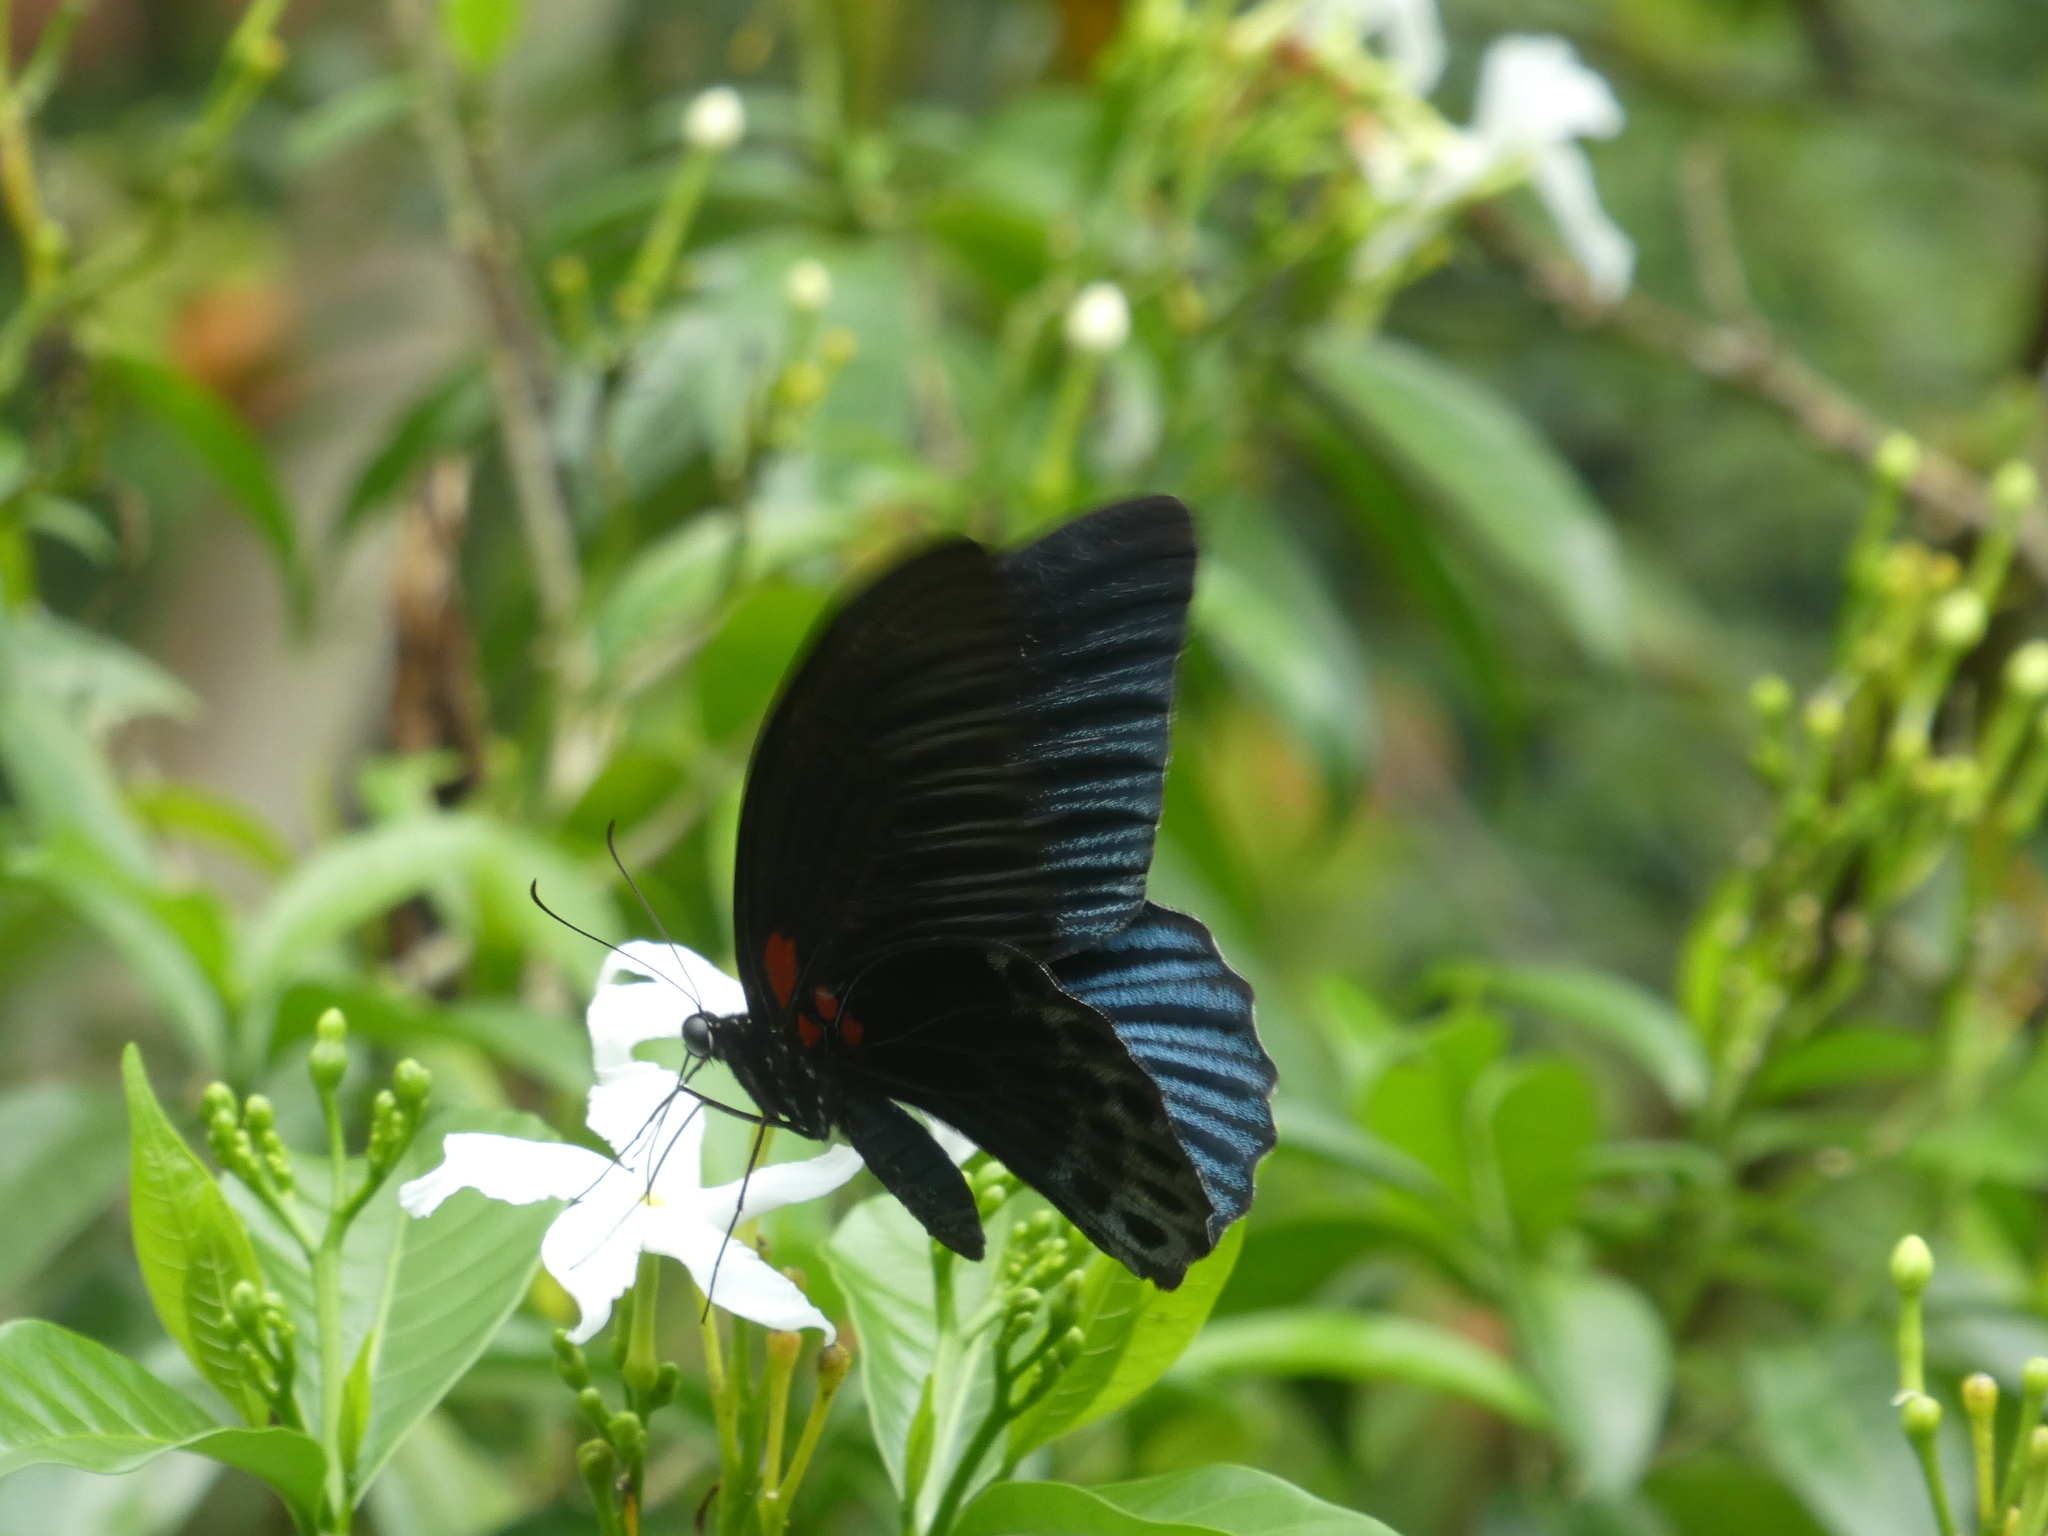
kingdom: Animalia
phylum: Arthropoda
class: Insecta
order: Lepidoptera
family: Papilionidae
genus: Papilio
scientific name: Papilio memnon
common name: Great mormon
